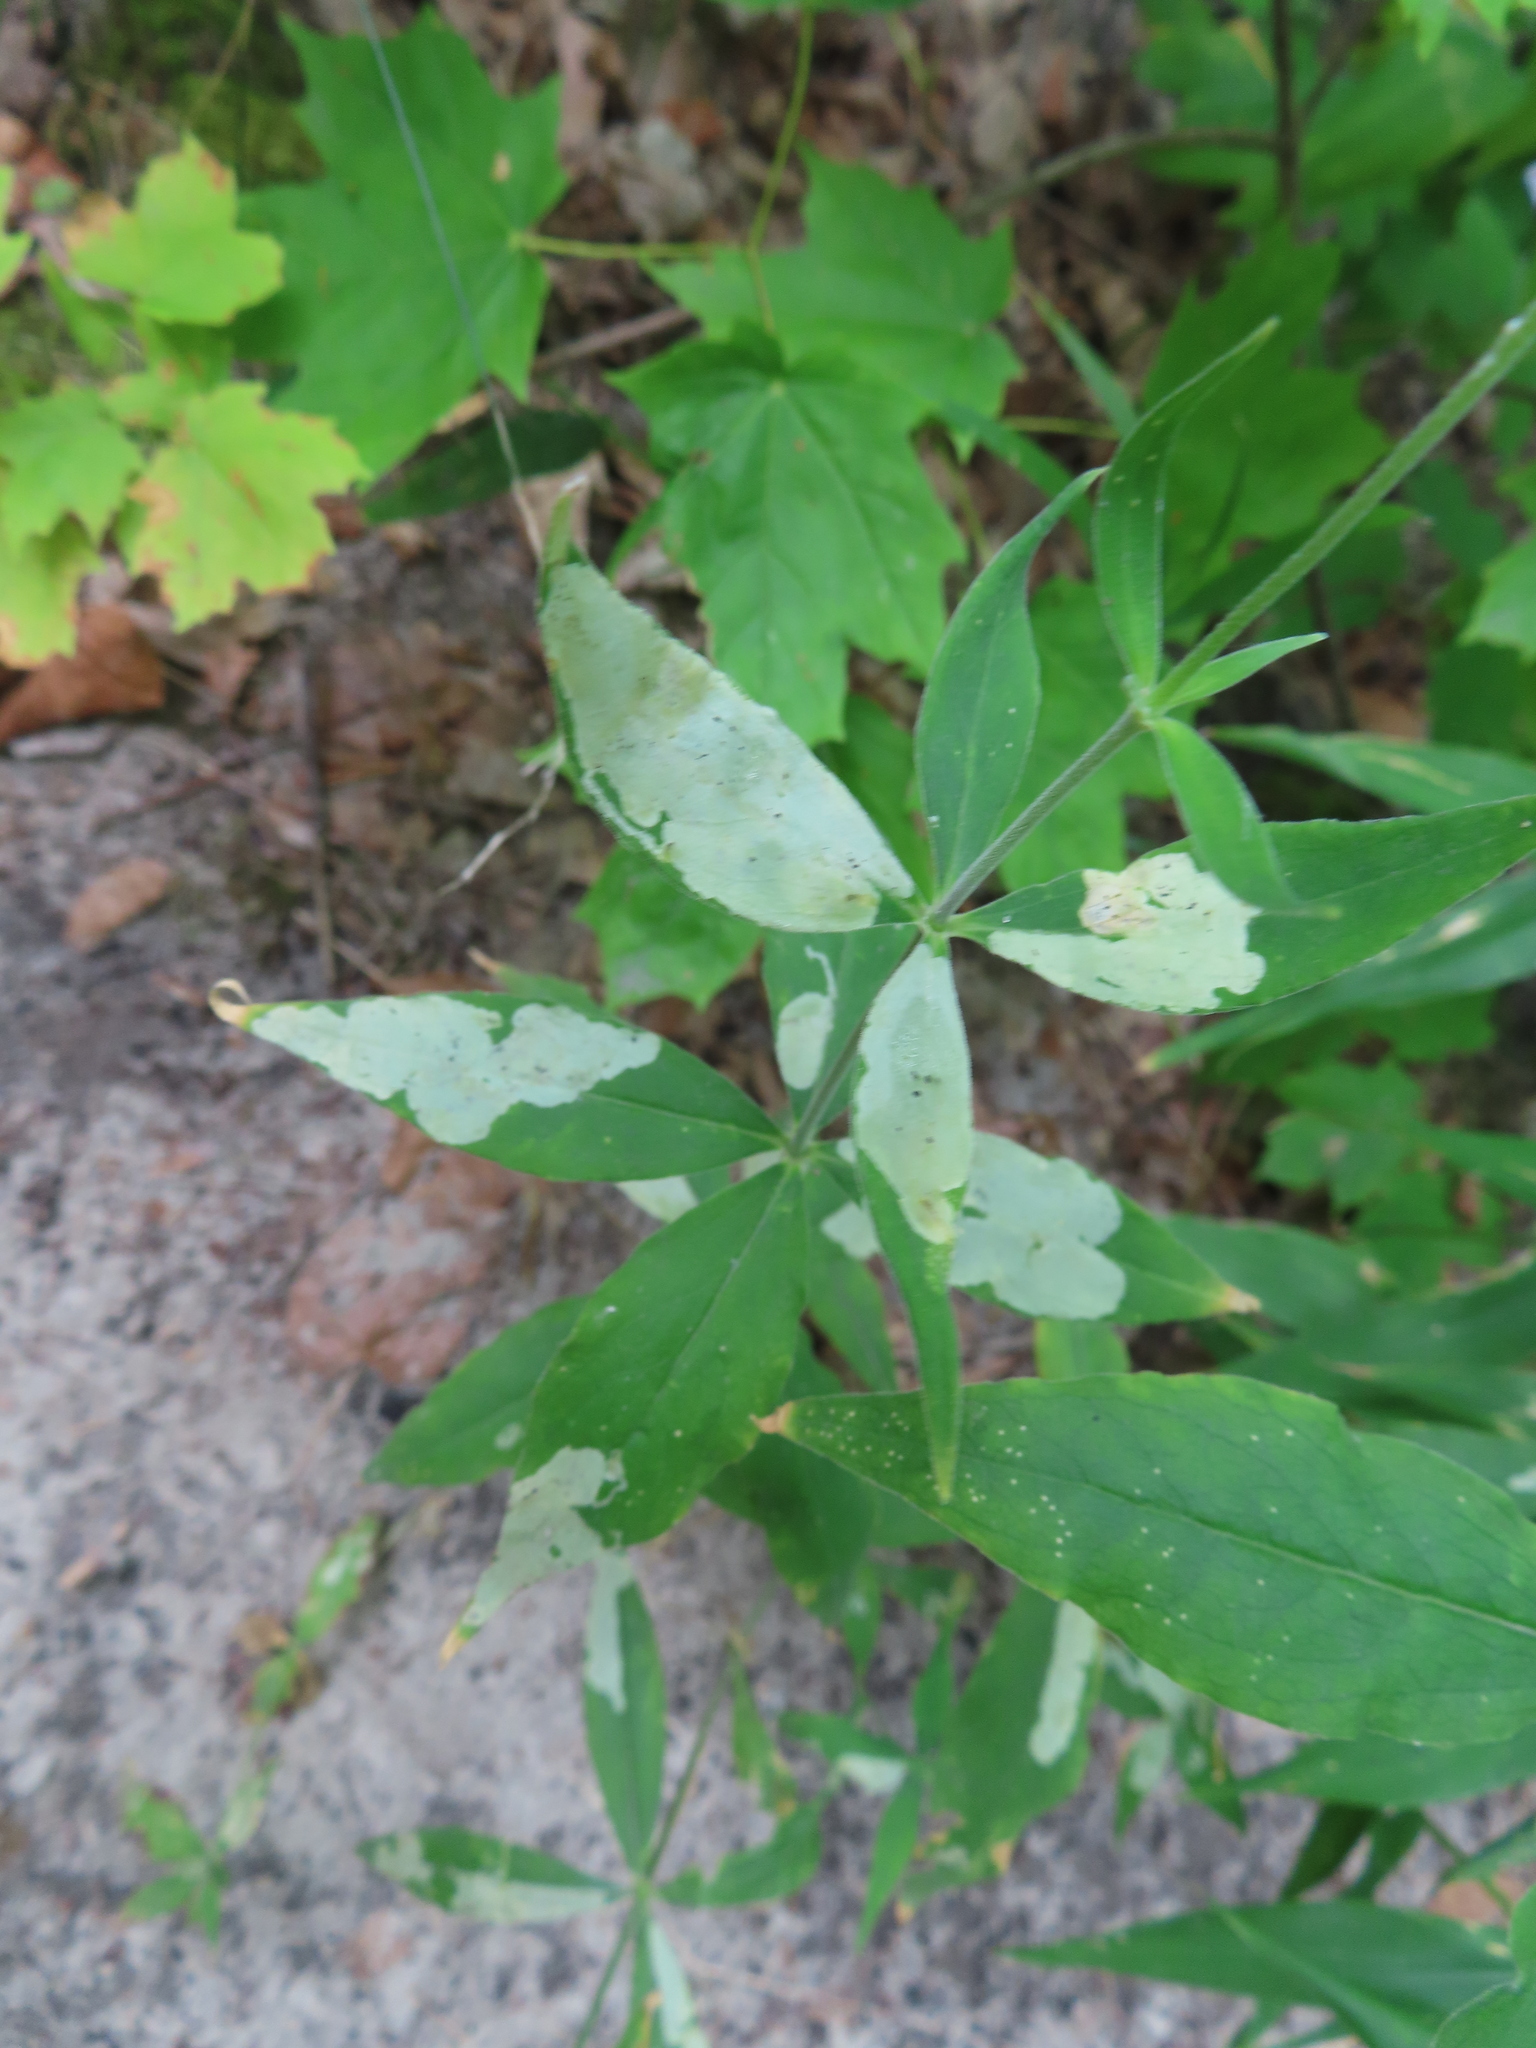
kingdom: Plantae
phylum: Tracheophyta
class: Magnoliopsida
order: Caryophyllales
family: Caryophyllaceae
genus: Silene
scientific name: Silene stellata
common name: Starry campion
